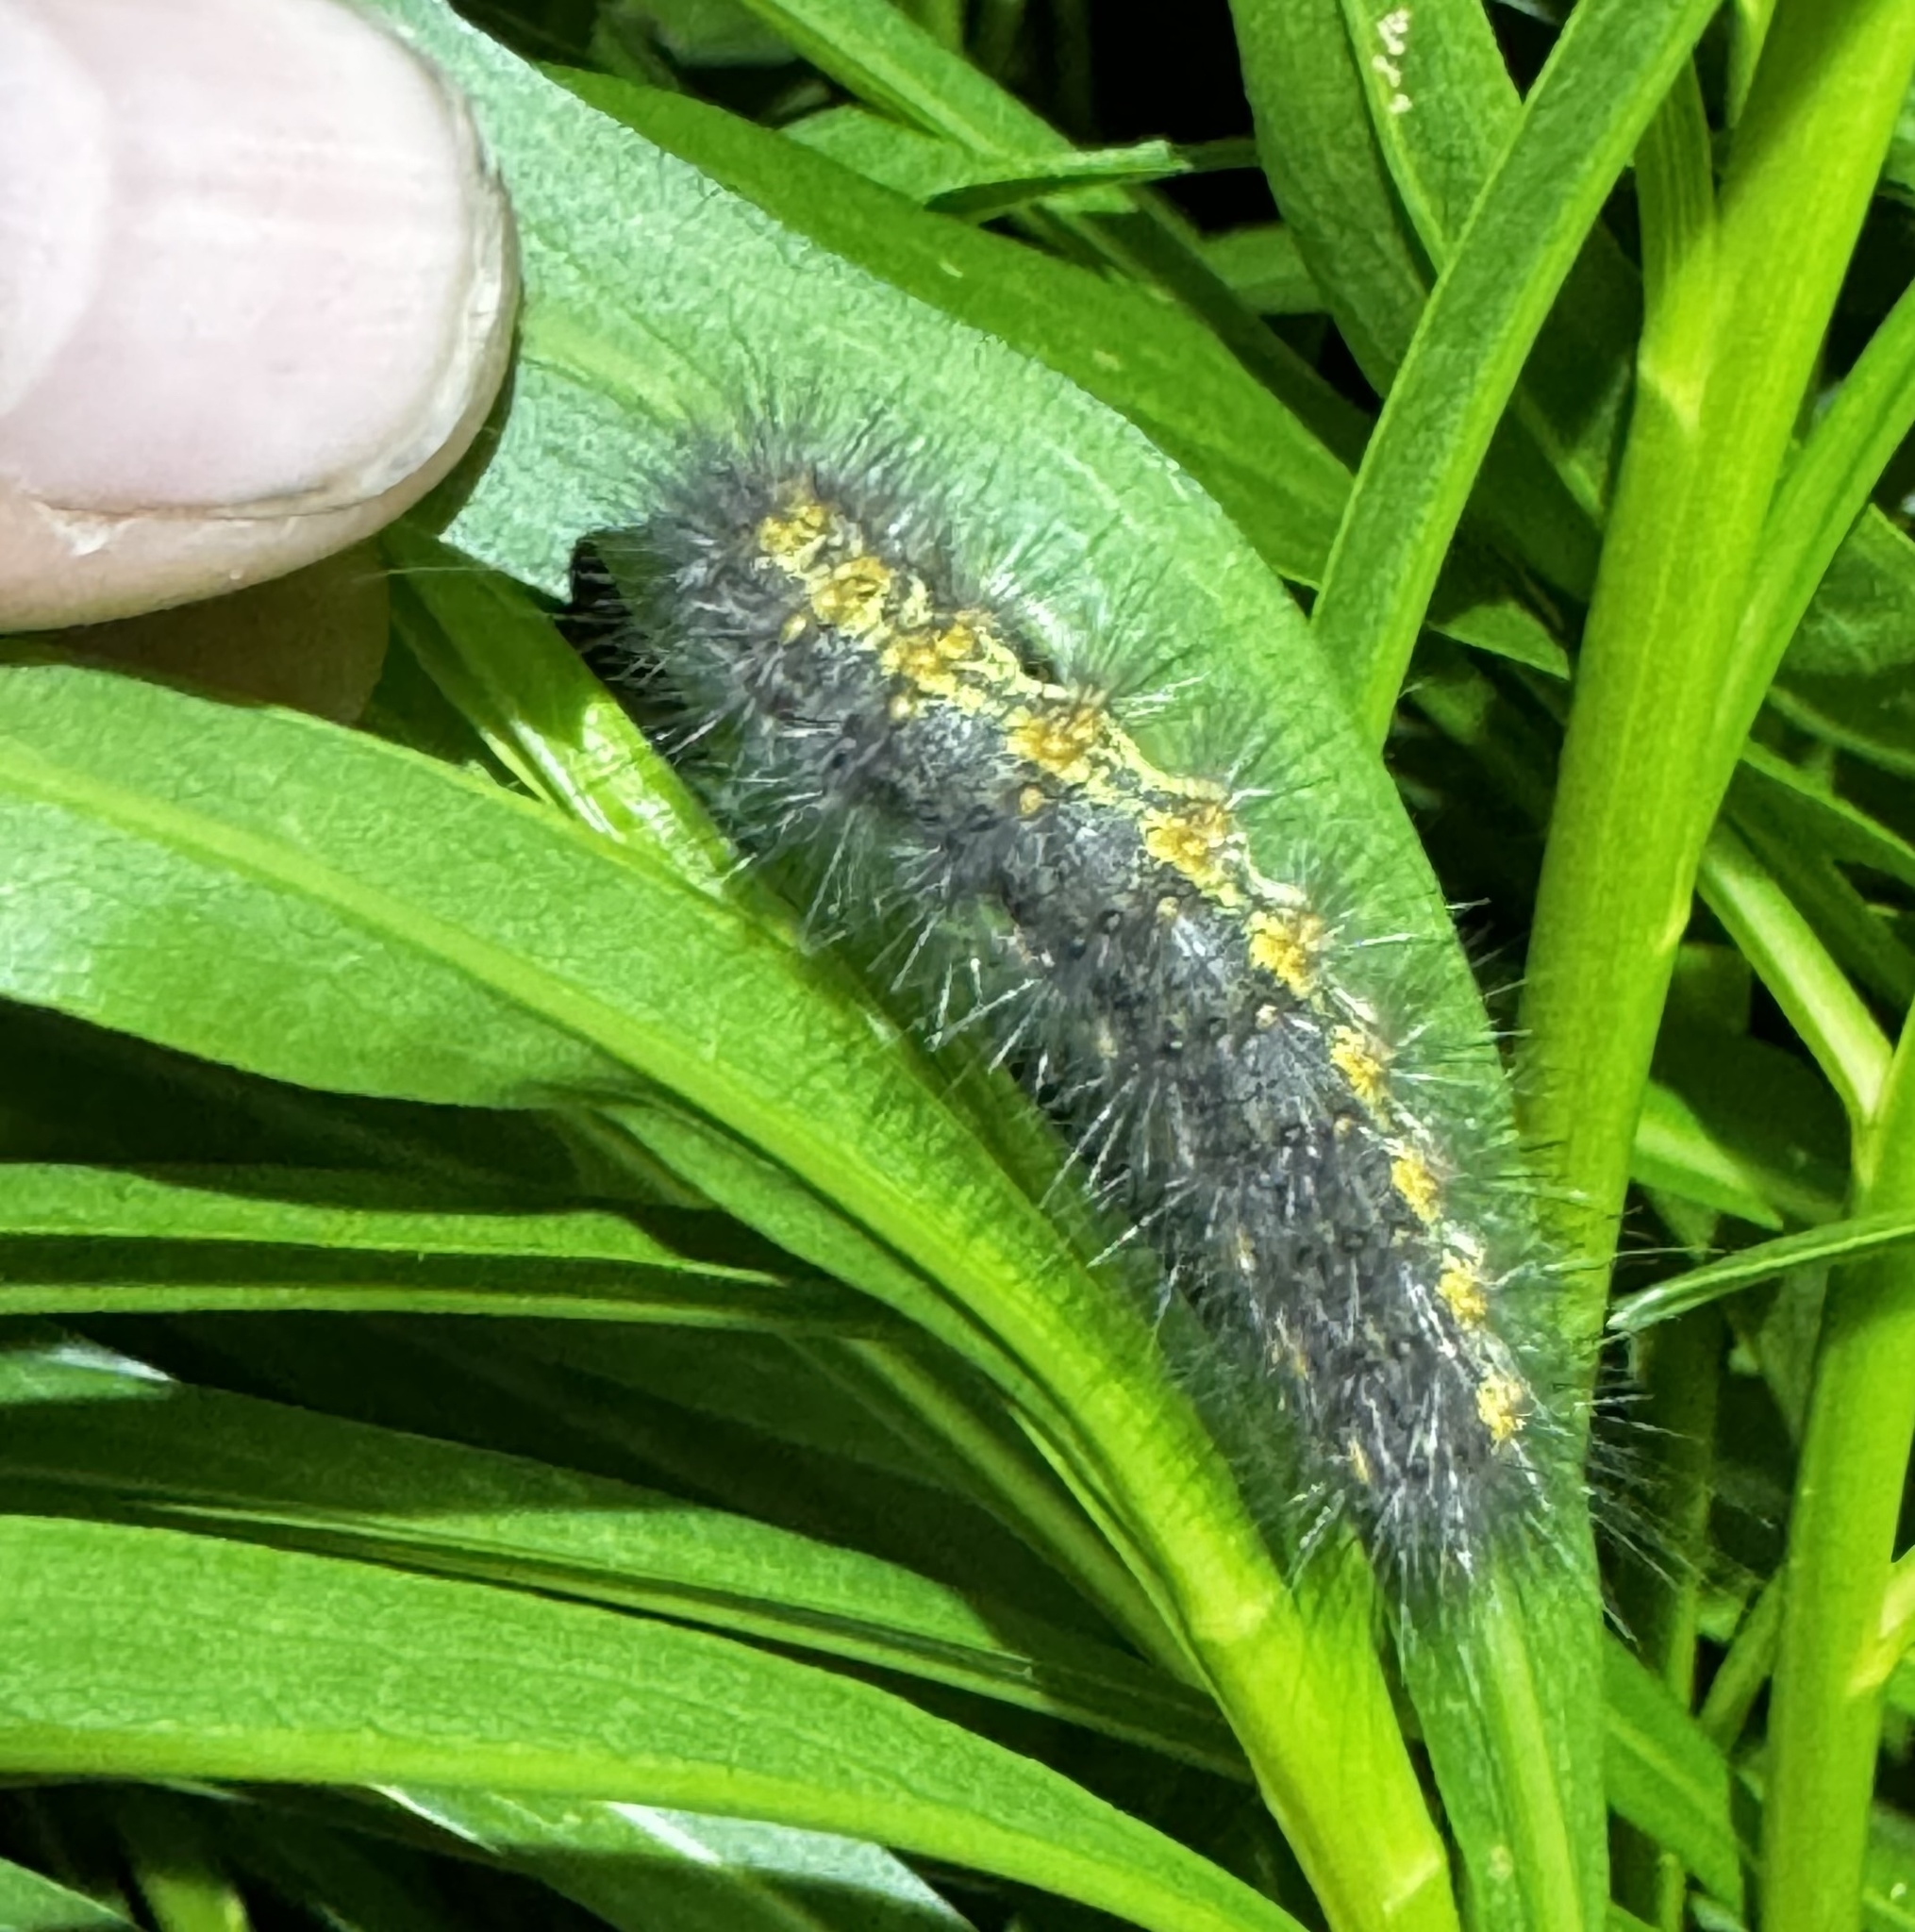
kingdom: Animalia
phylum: Arthropoda
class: Insecta
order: Lepidoptera
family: Erebidae
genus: Estigmene
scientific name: Estigmene acrea
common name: Salt marsh moth
